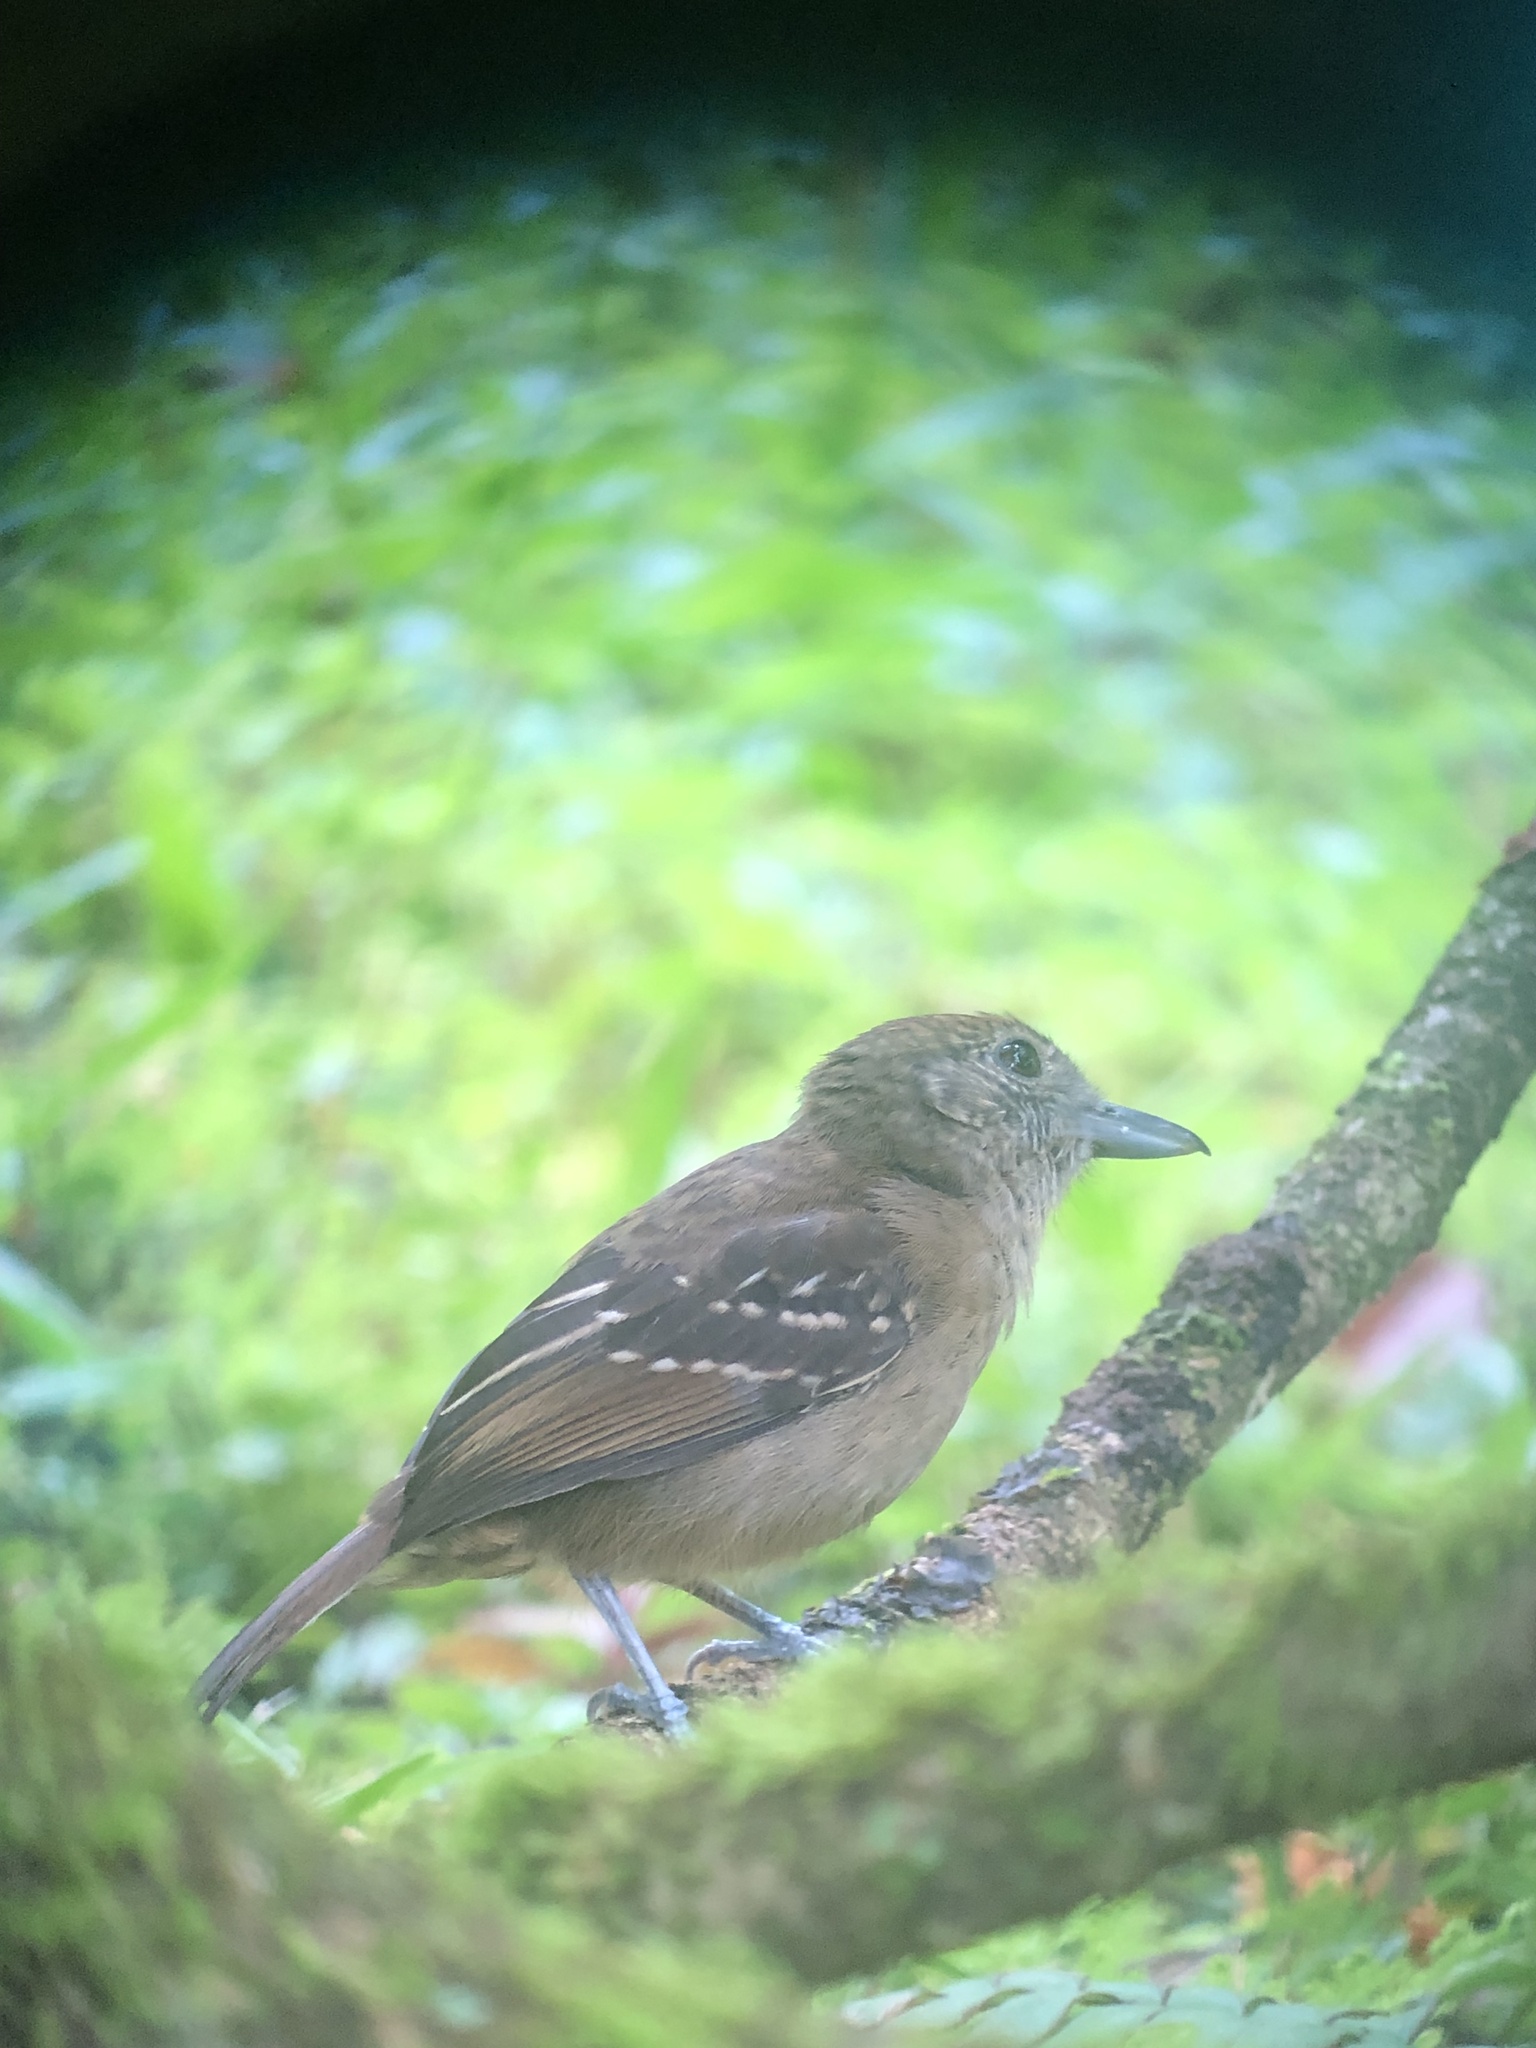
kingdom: Animalia
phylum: Chordata
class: Aves
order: Passeriformes
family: Thamnophilidae
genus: Thamnophilus
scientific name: Thamnophilus atrinucha
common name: Black-crowned antshrike
